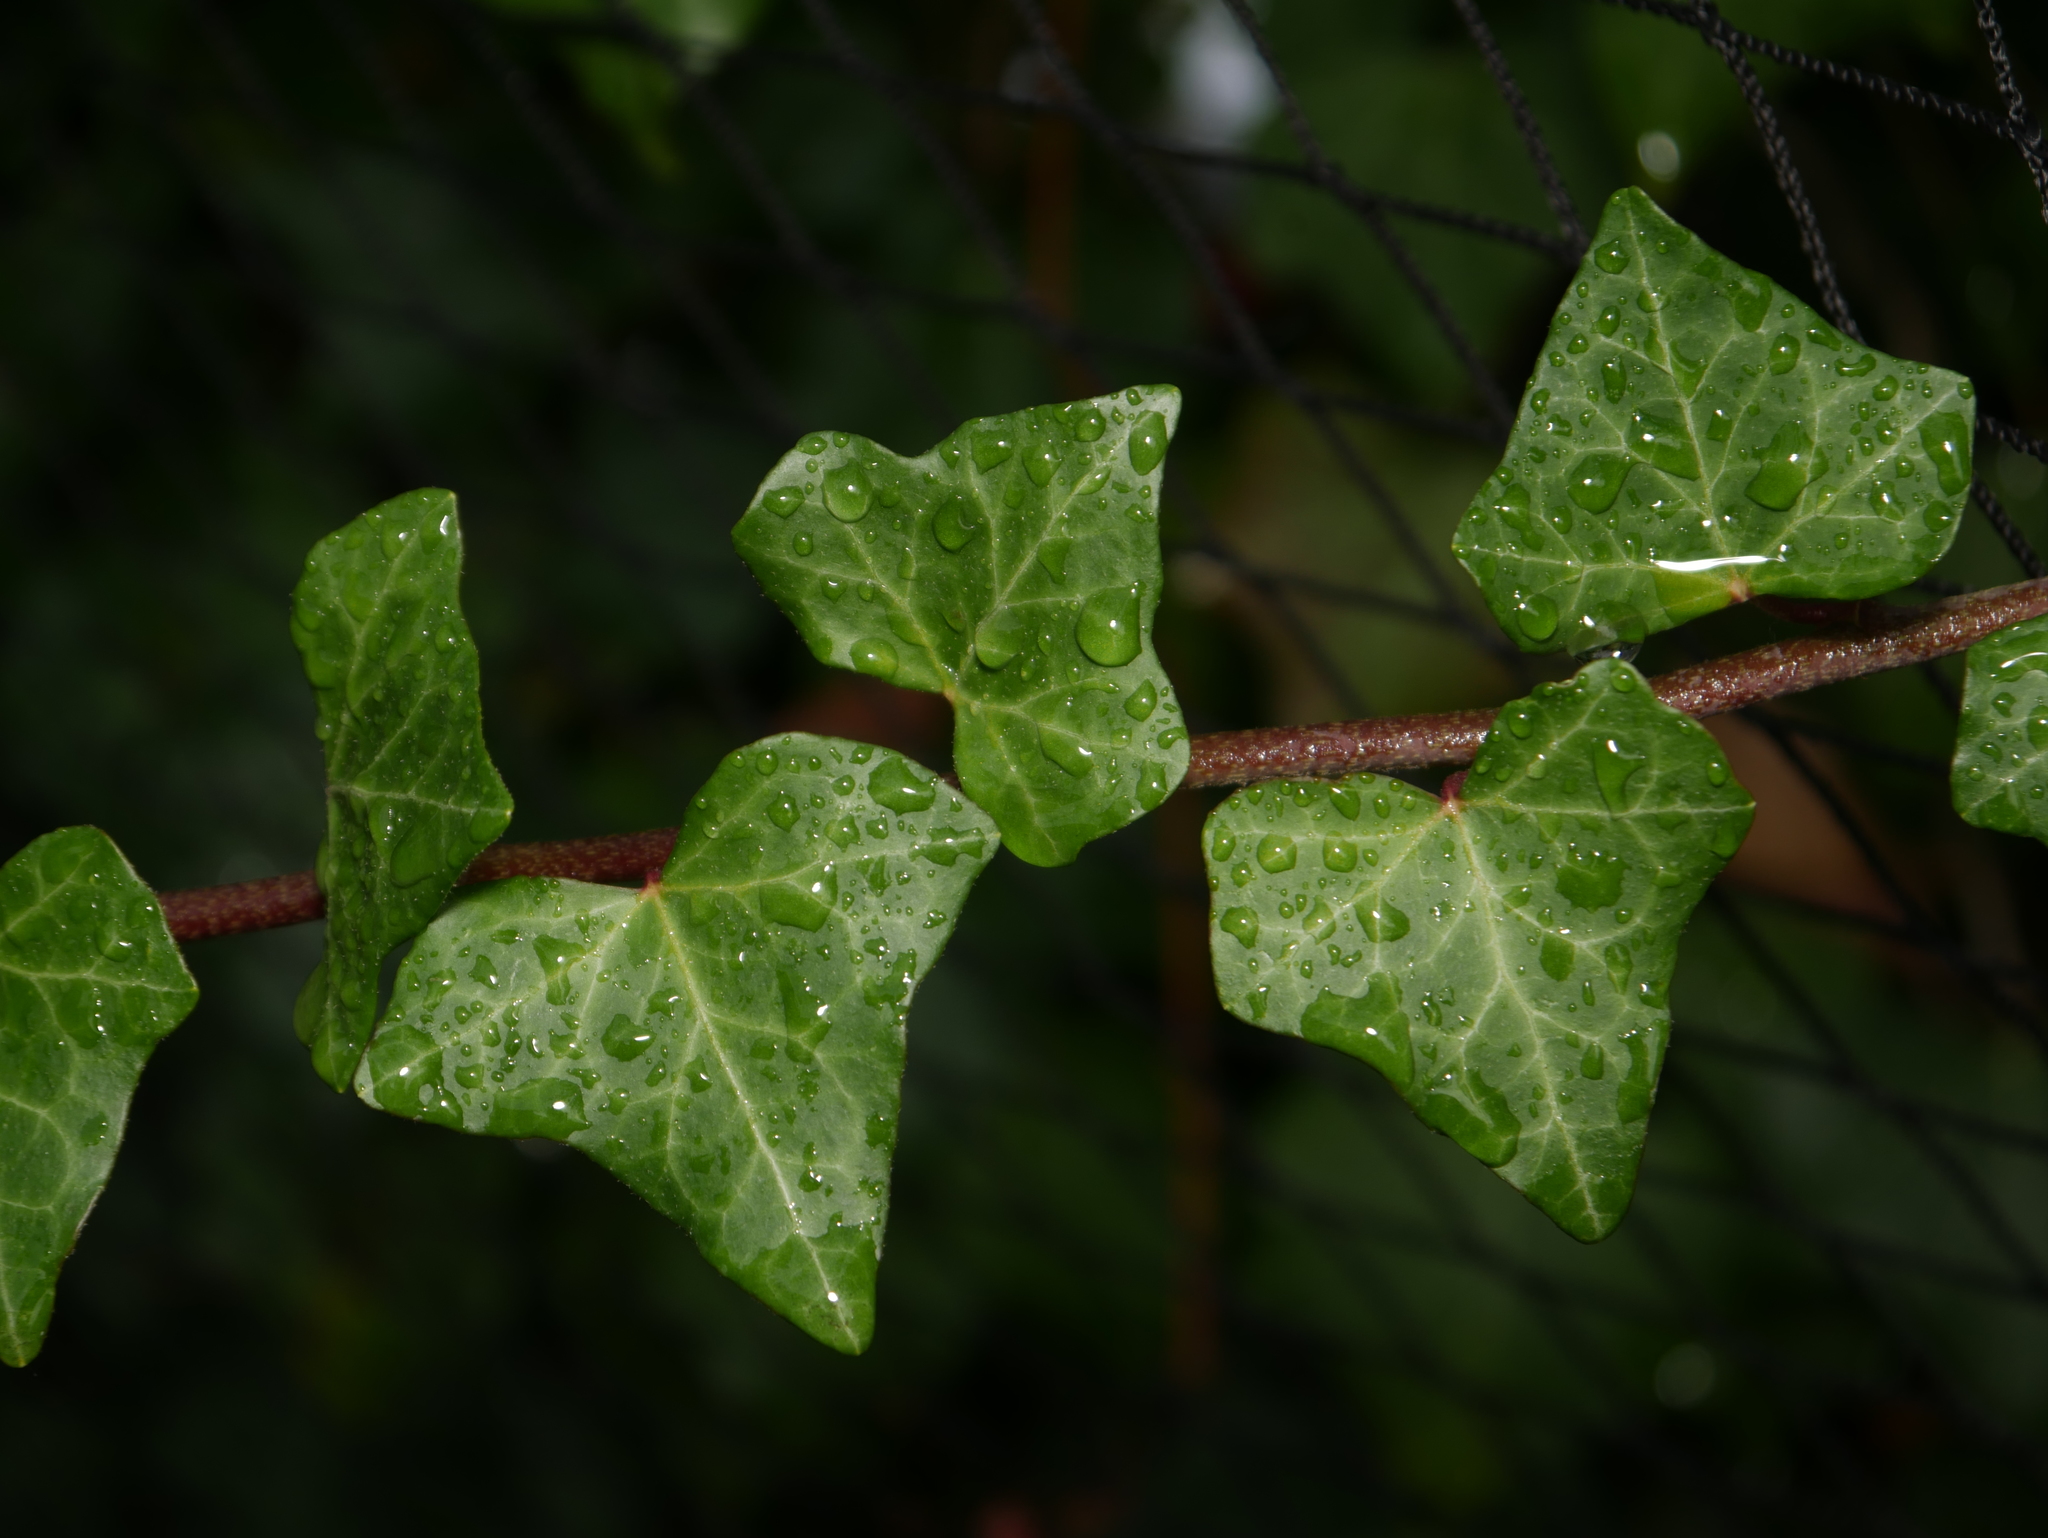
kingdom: Plantae
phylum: Tracheophyta
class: Magnoliopsida
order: Apiales
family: Araliaceae
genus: Hedera
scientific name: Hedera helix
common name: Ivy
